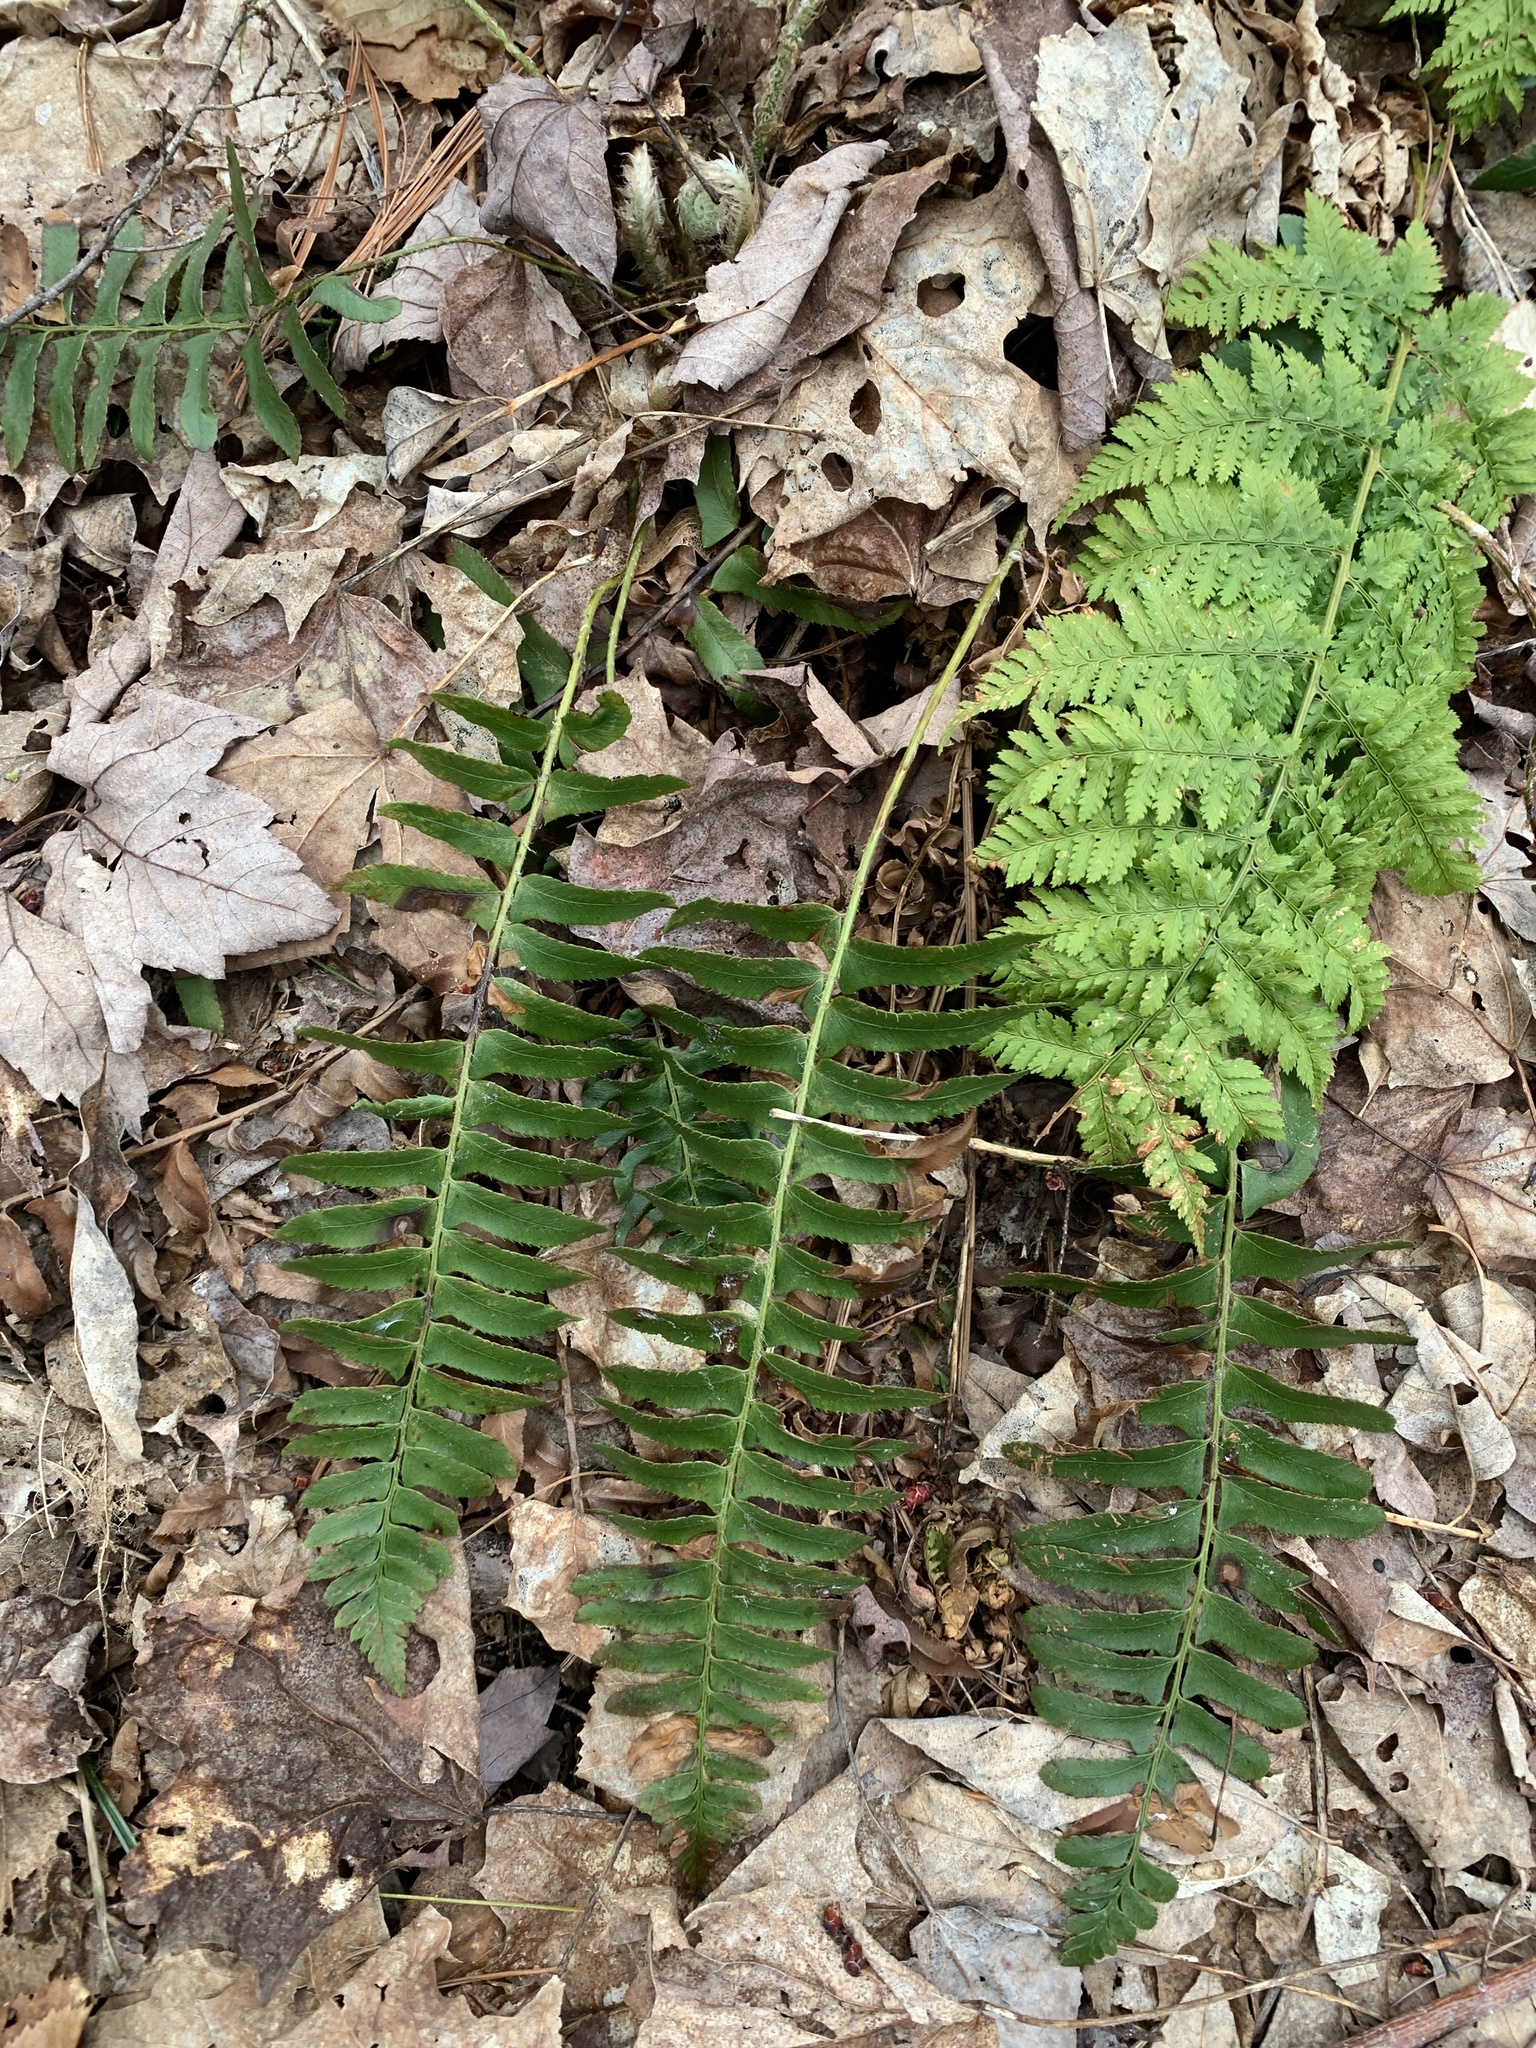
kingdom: Plantae
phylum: Tracheophyta
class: Polypodiopsida
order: Polypodiales
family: Dryopteridaceae
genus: Polystichum
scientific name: Polystichum acrostichoides
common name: Christmas fern
